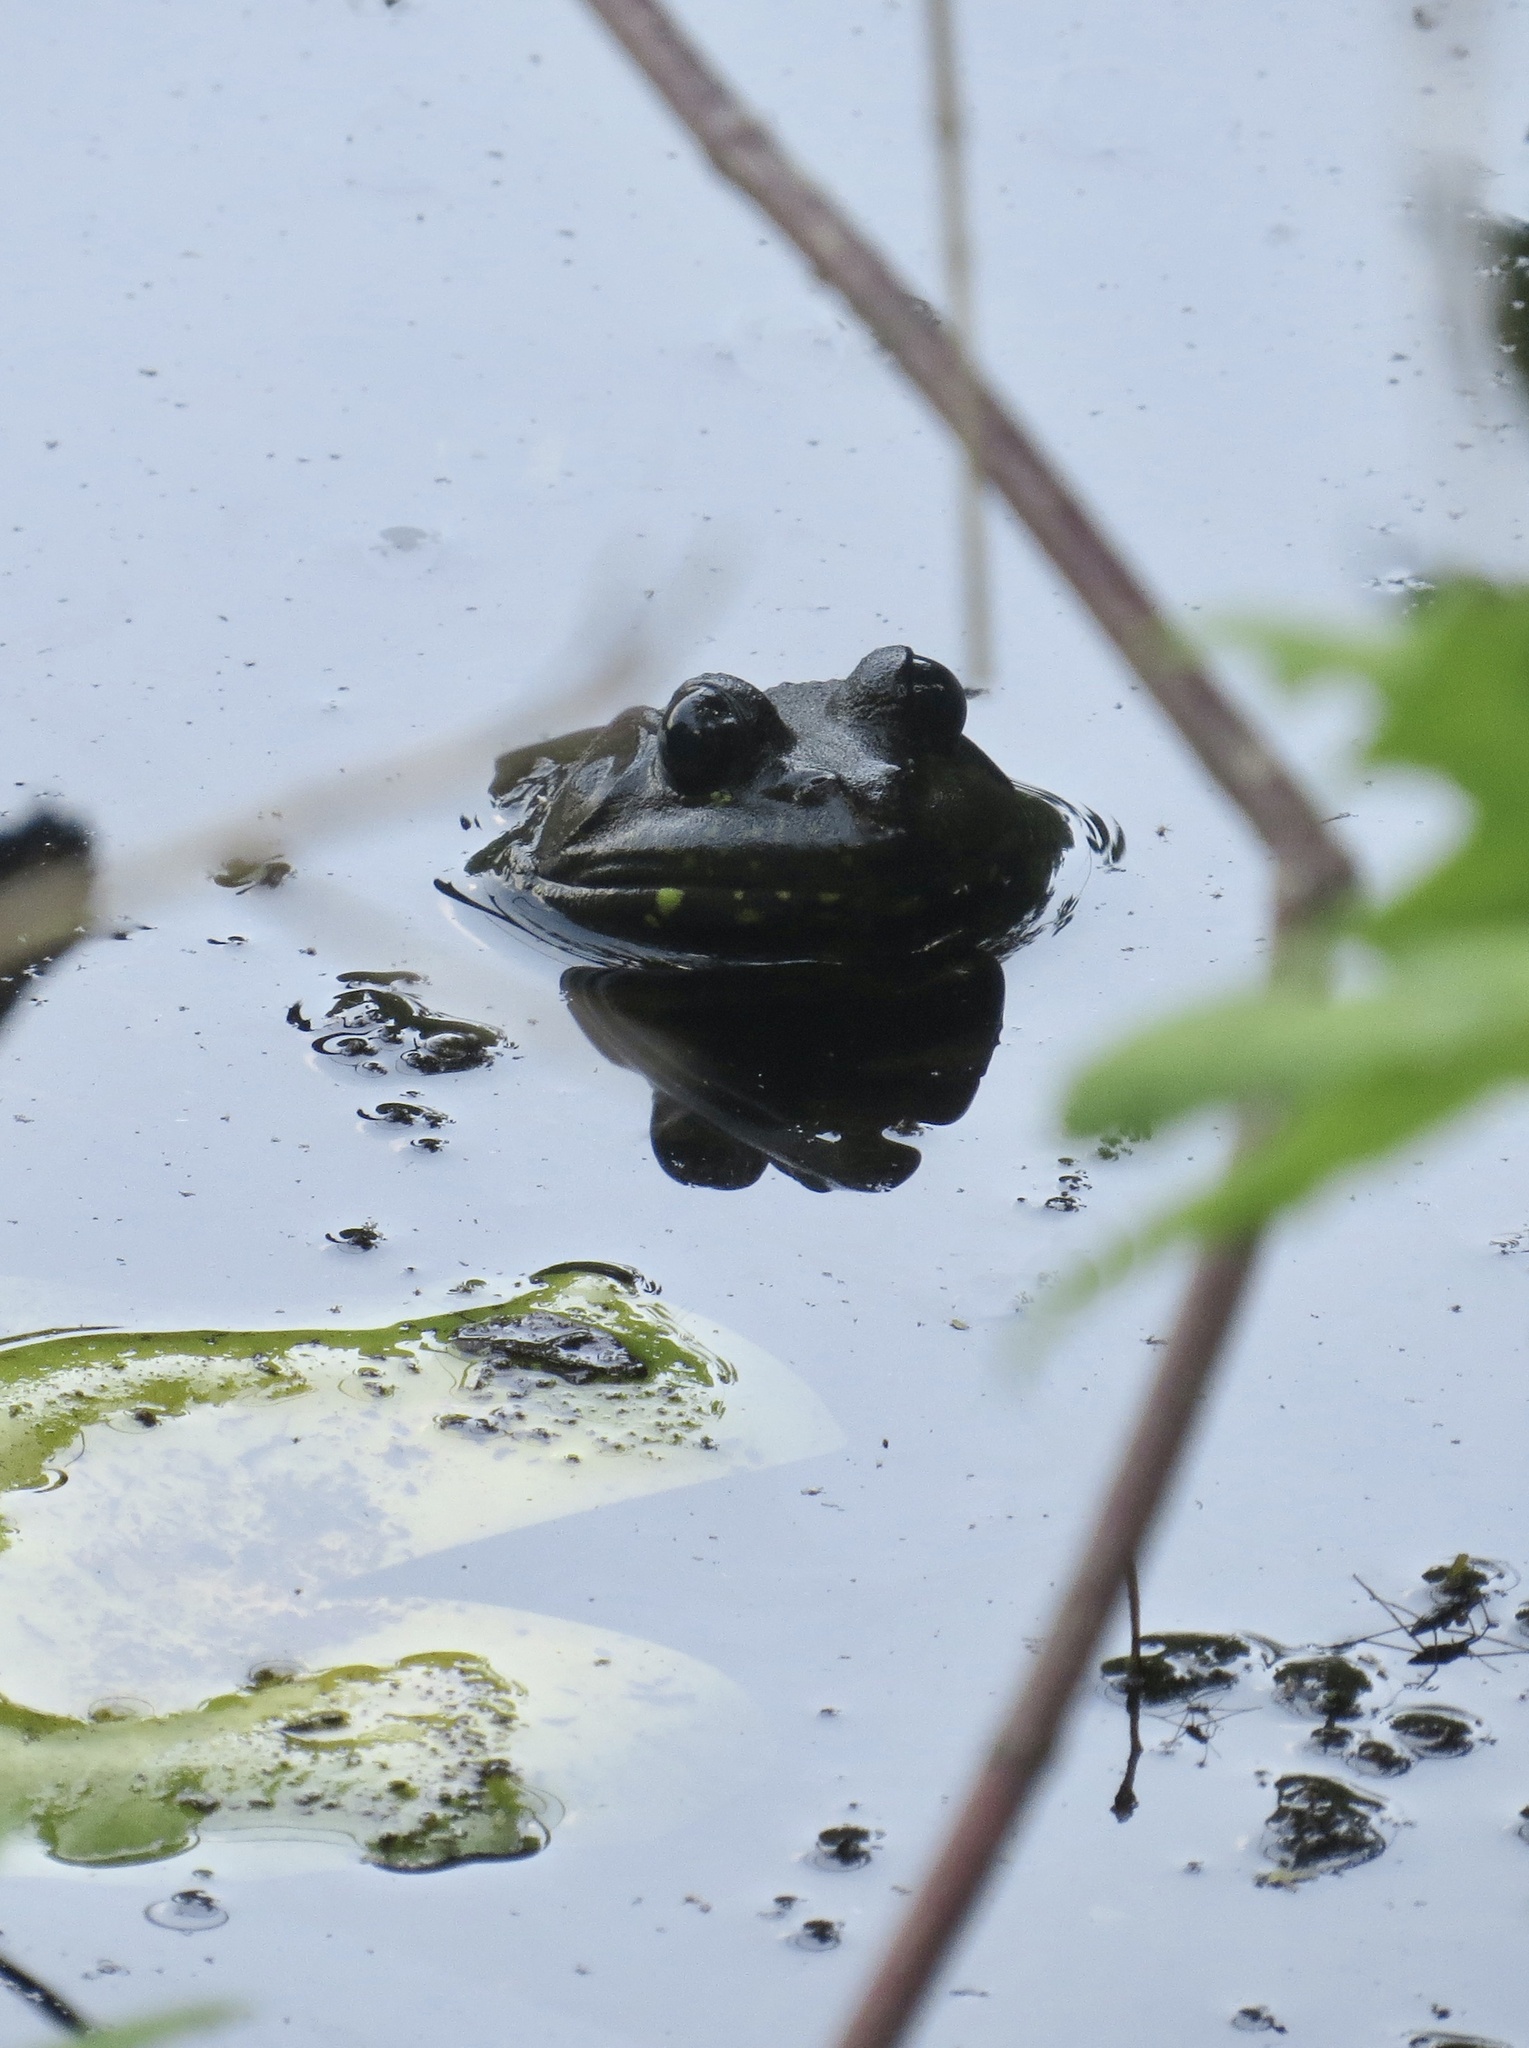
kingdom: Animalia
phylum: Chordata
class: Amphibia
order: Anura
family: Ranidae
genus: Lithobates
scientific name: Lithobates catesbeianus
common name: American bullfrog
